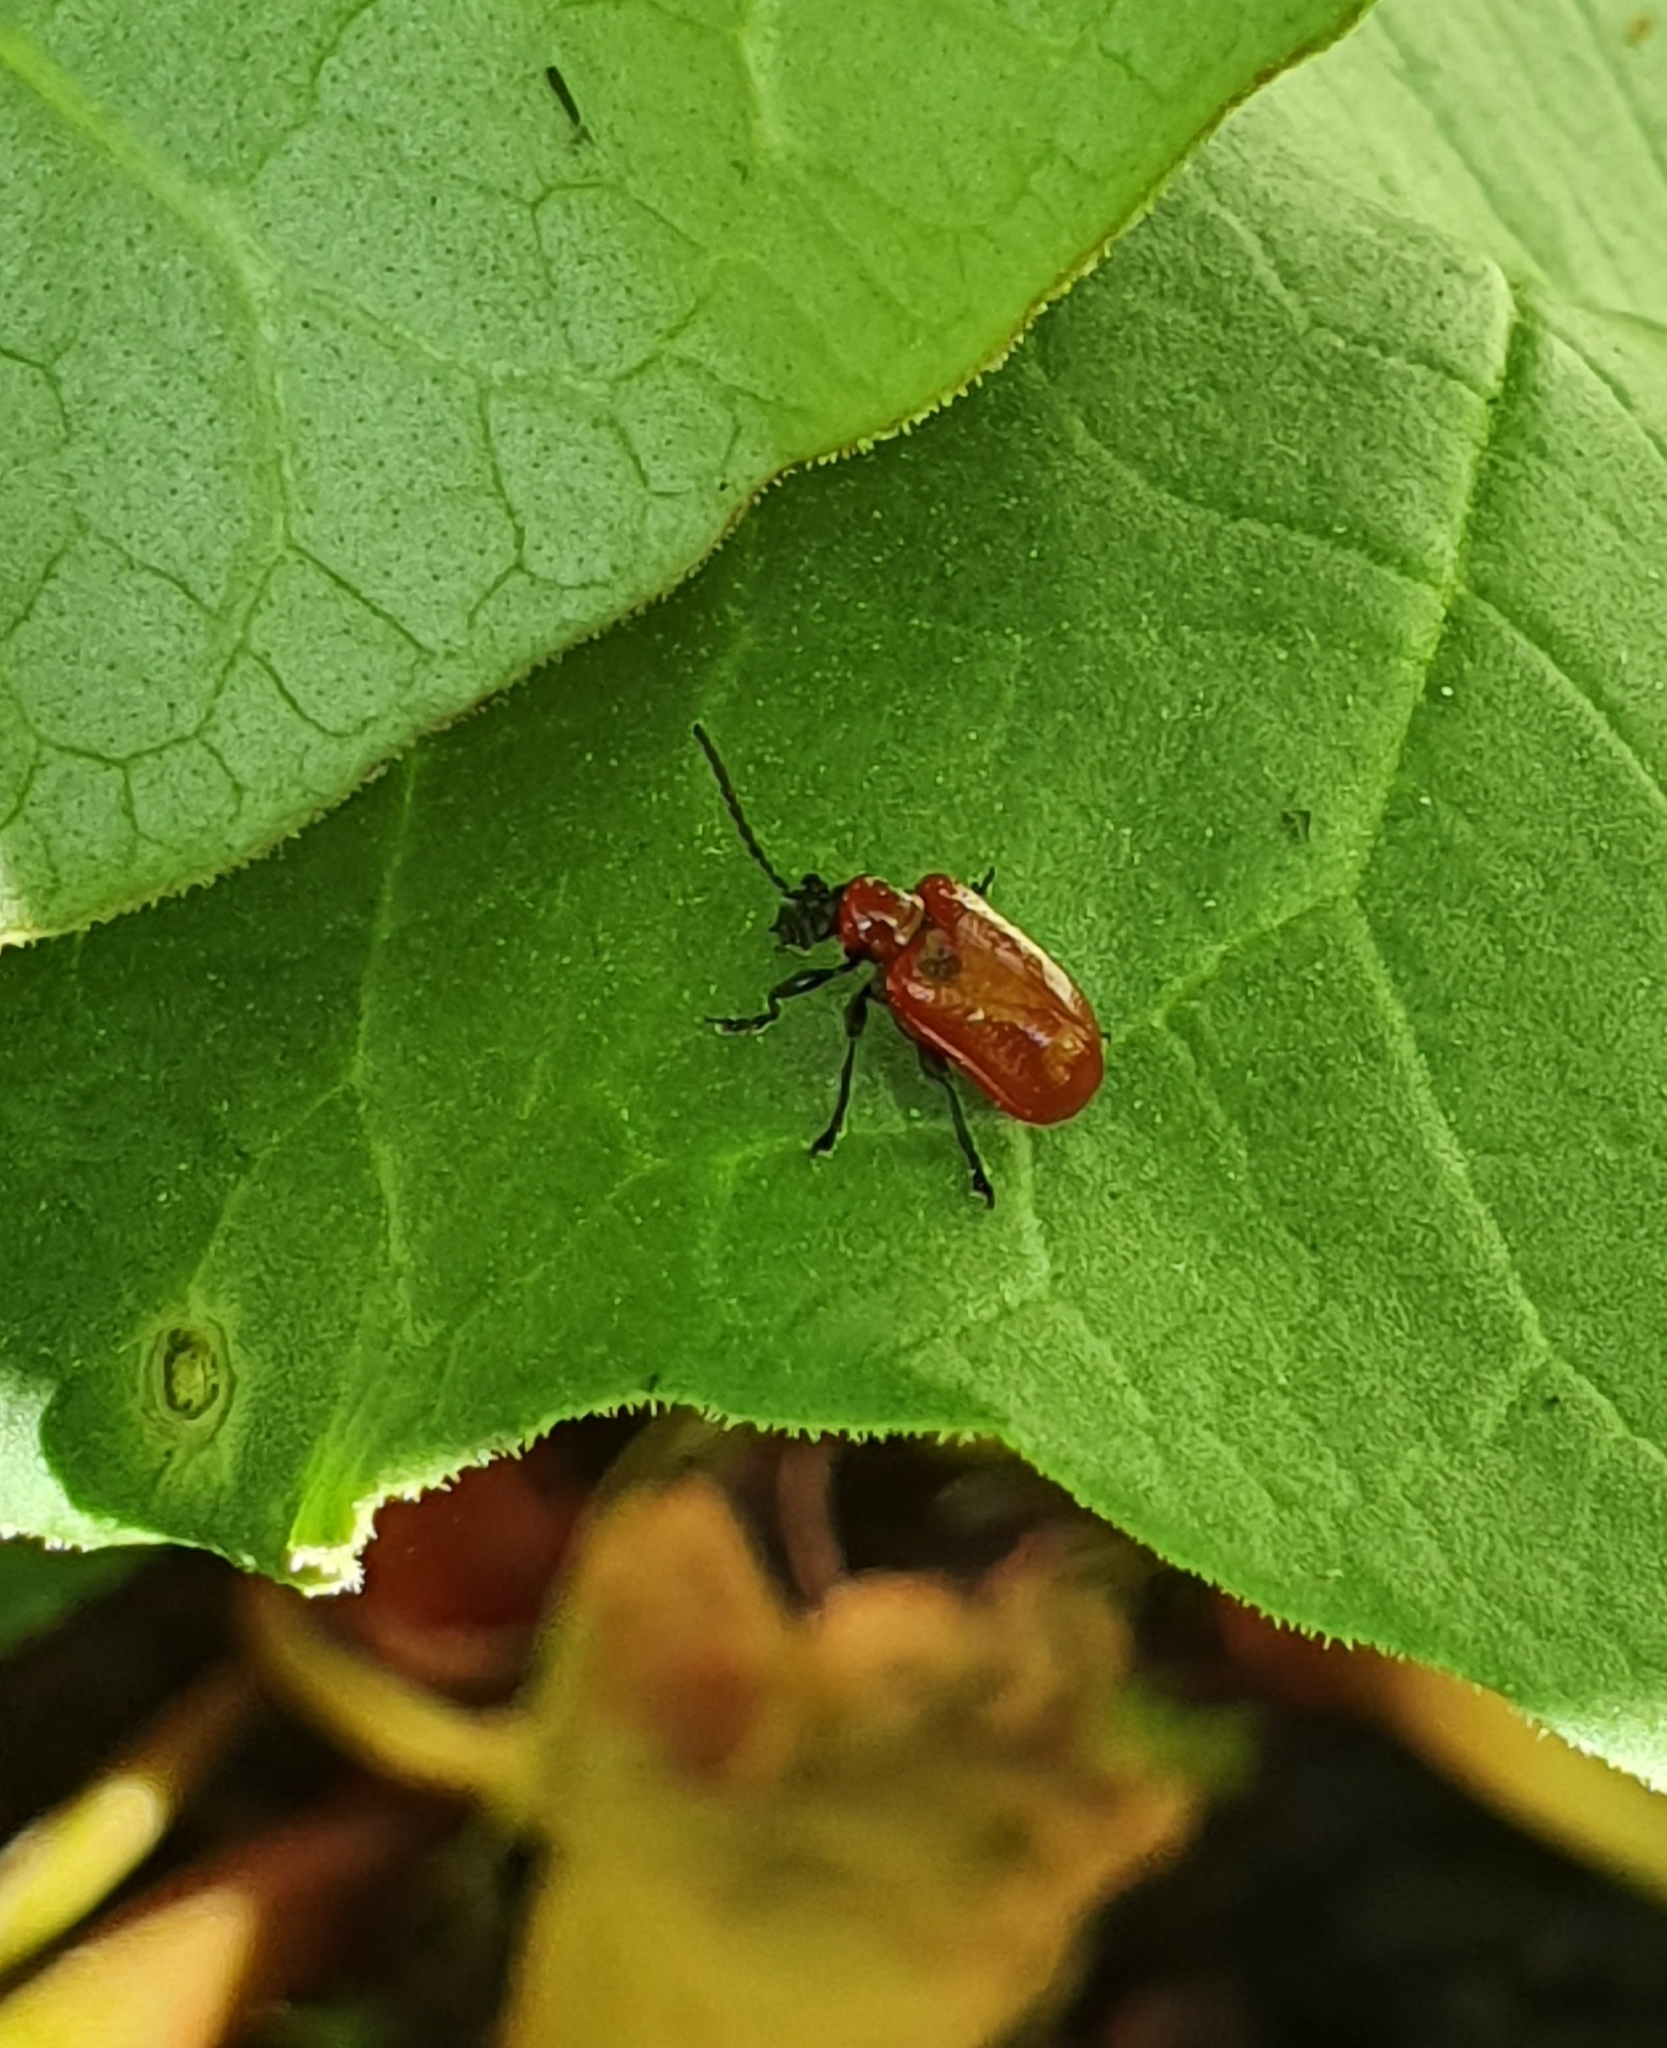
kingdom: Animalia
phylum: Arthropoda
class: Insecta
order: Coleoptera
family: Chrysomelidae
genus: Lilioceris
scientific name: Lilioceris lilii
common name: Lily beetle
